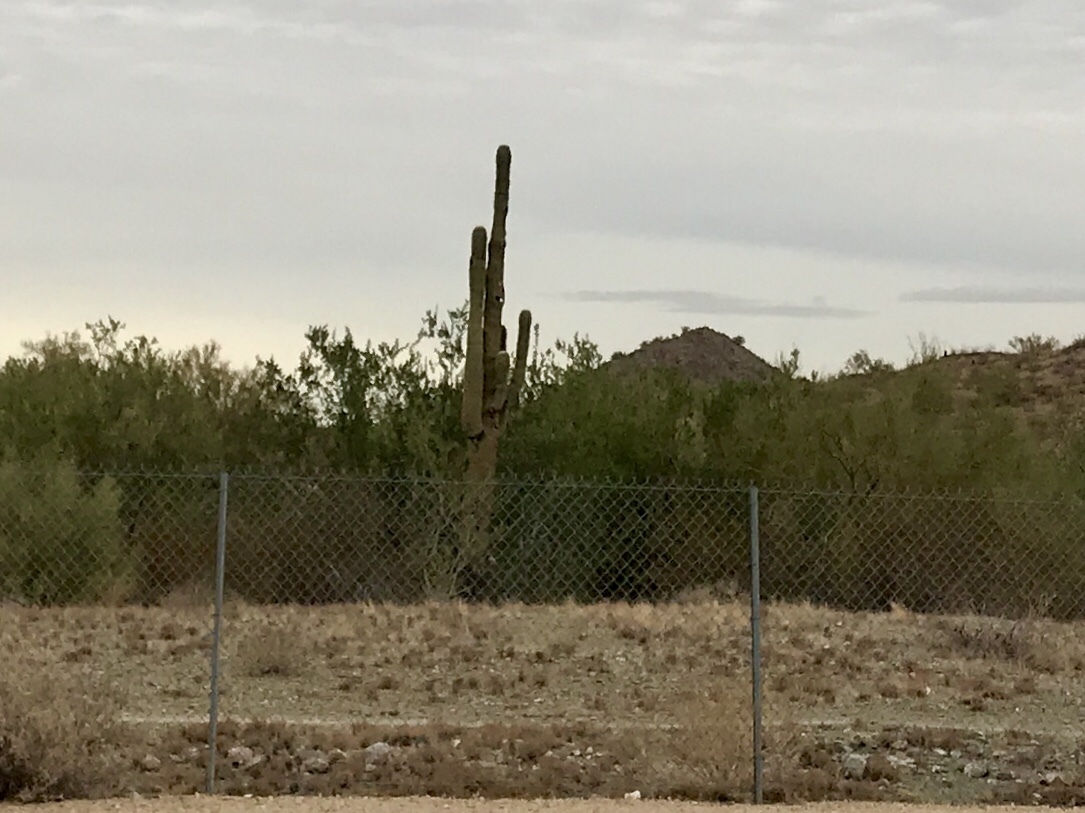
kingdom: Plantae
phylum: Tracheophyta
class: Magnoliopsida
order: Caryophyllales
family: Cactaceae
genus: Carnegiea
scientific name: Carnegiea gigantea
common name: Saguaro
